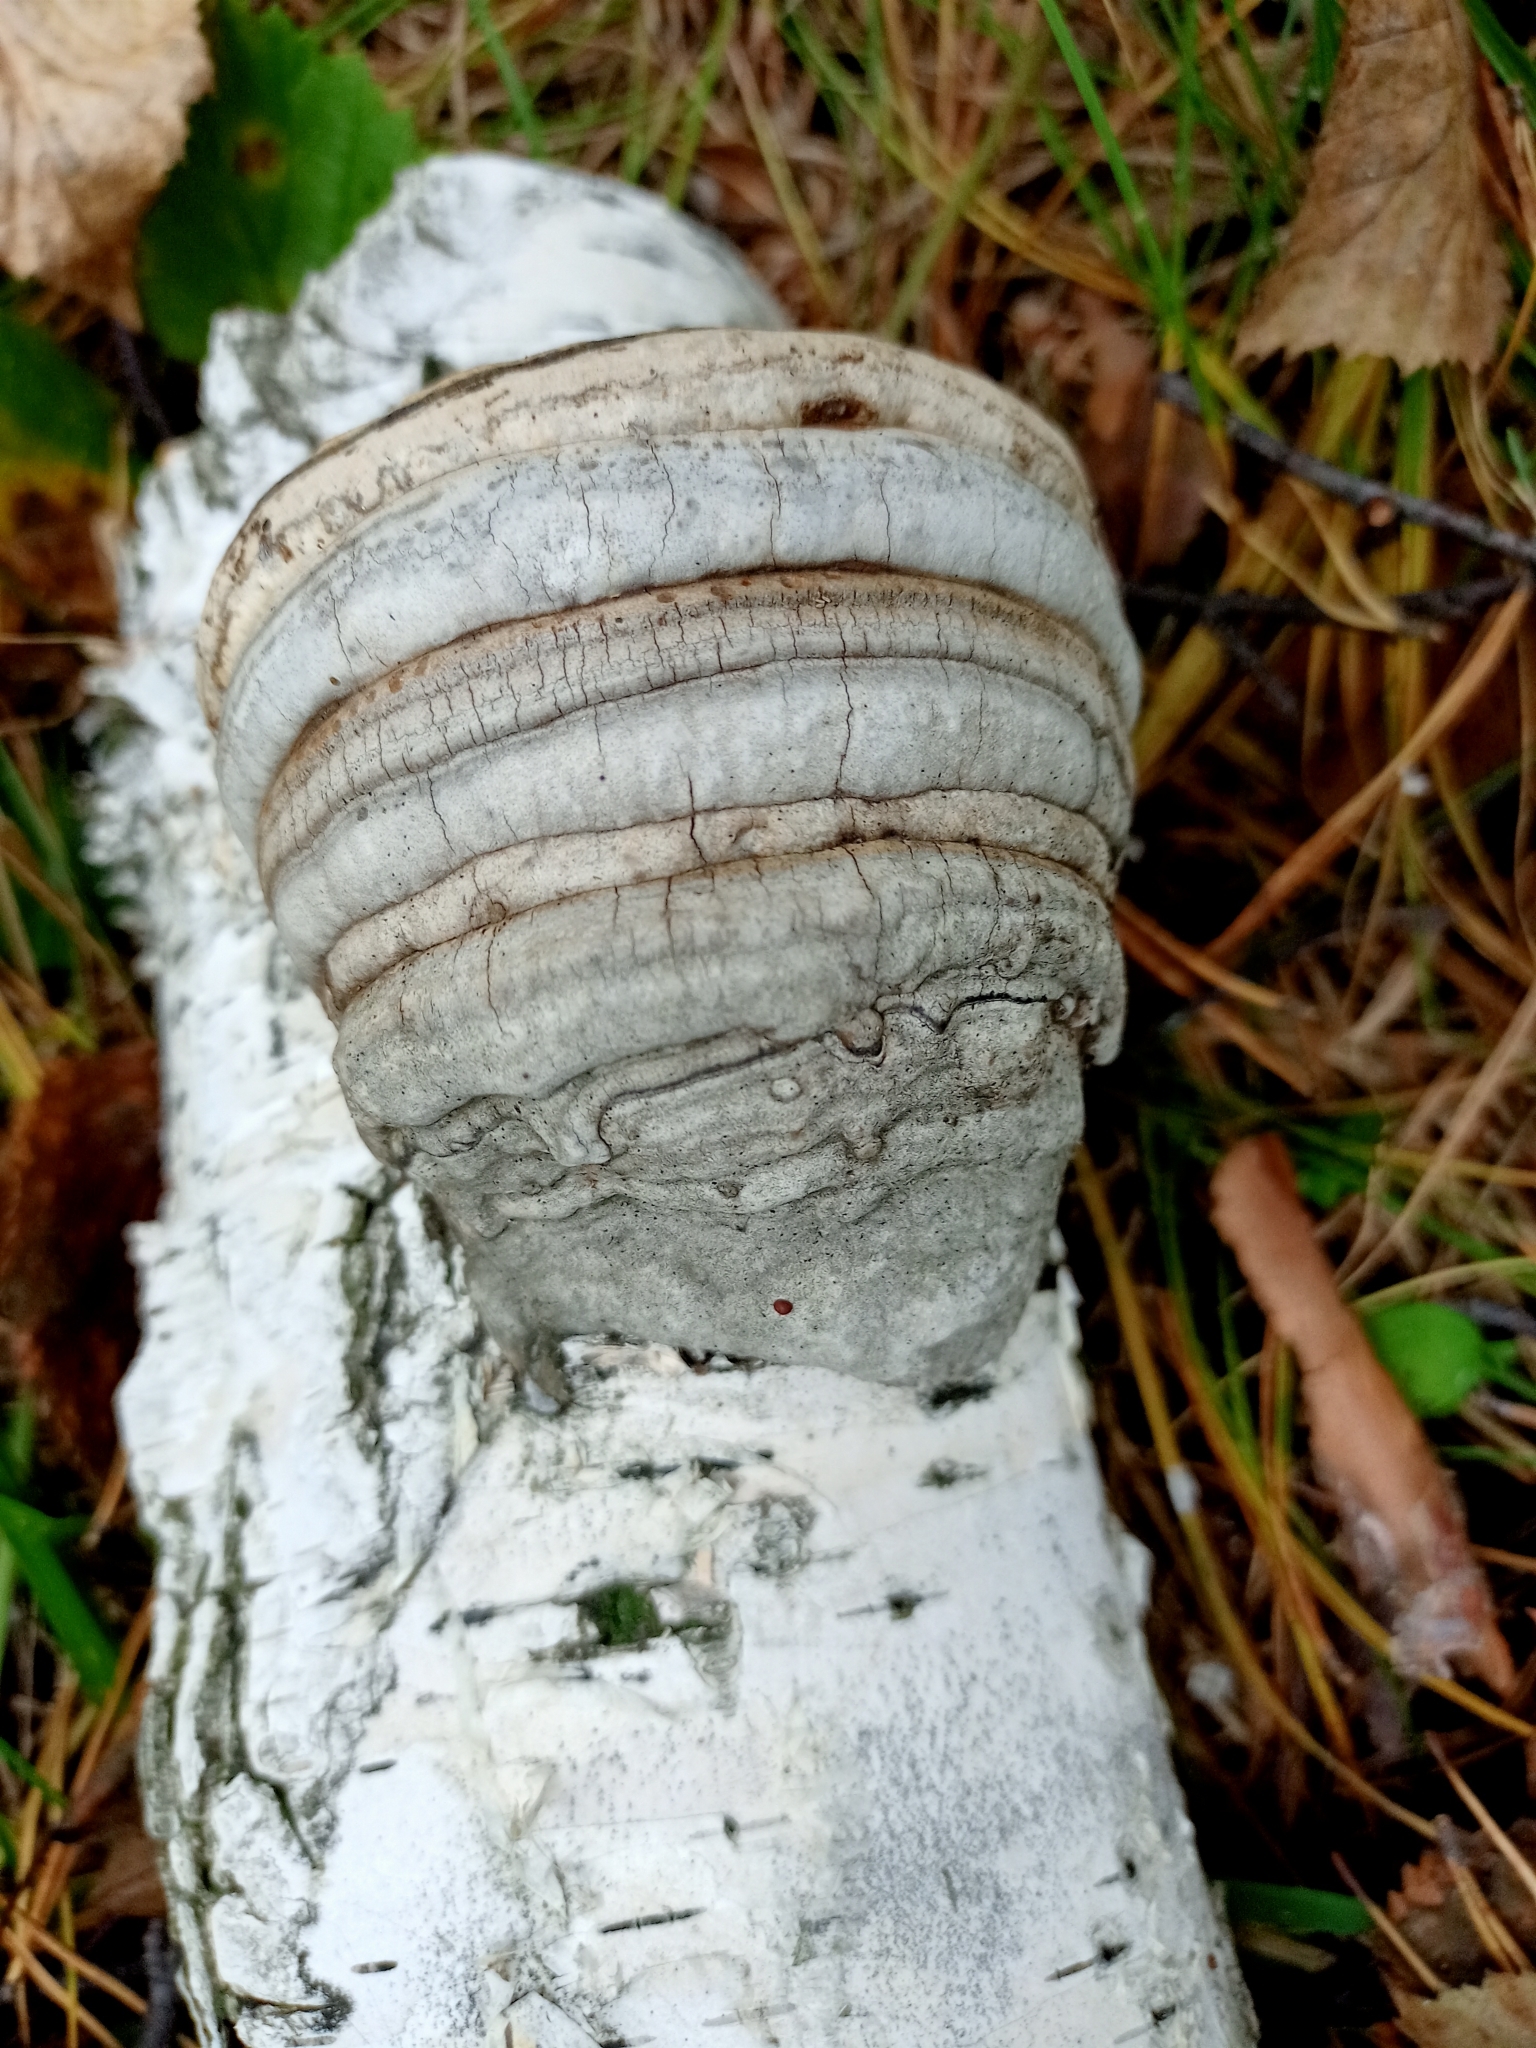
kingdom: Fungi
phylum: Basidiomycota
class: Agaricomycetes
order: Polyporales
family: Polyporaceae
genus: Fomes
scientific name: Fomes fomentarius
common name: Hoof fungus
